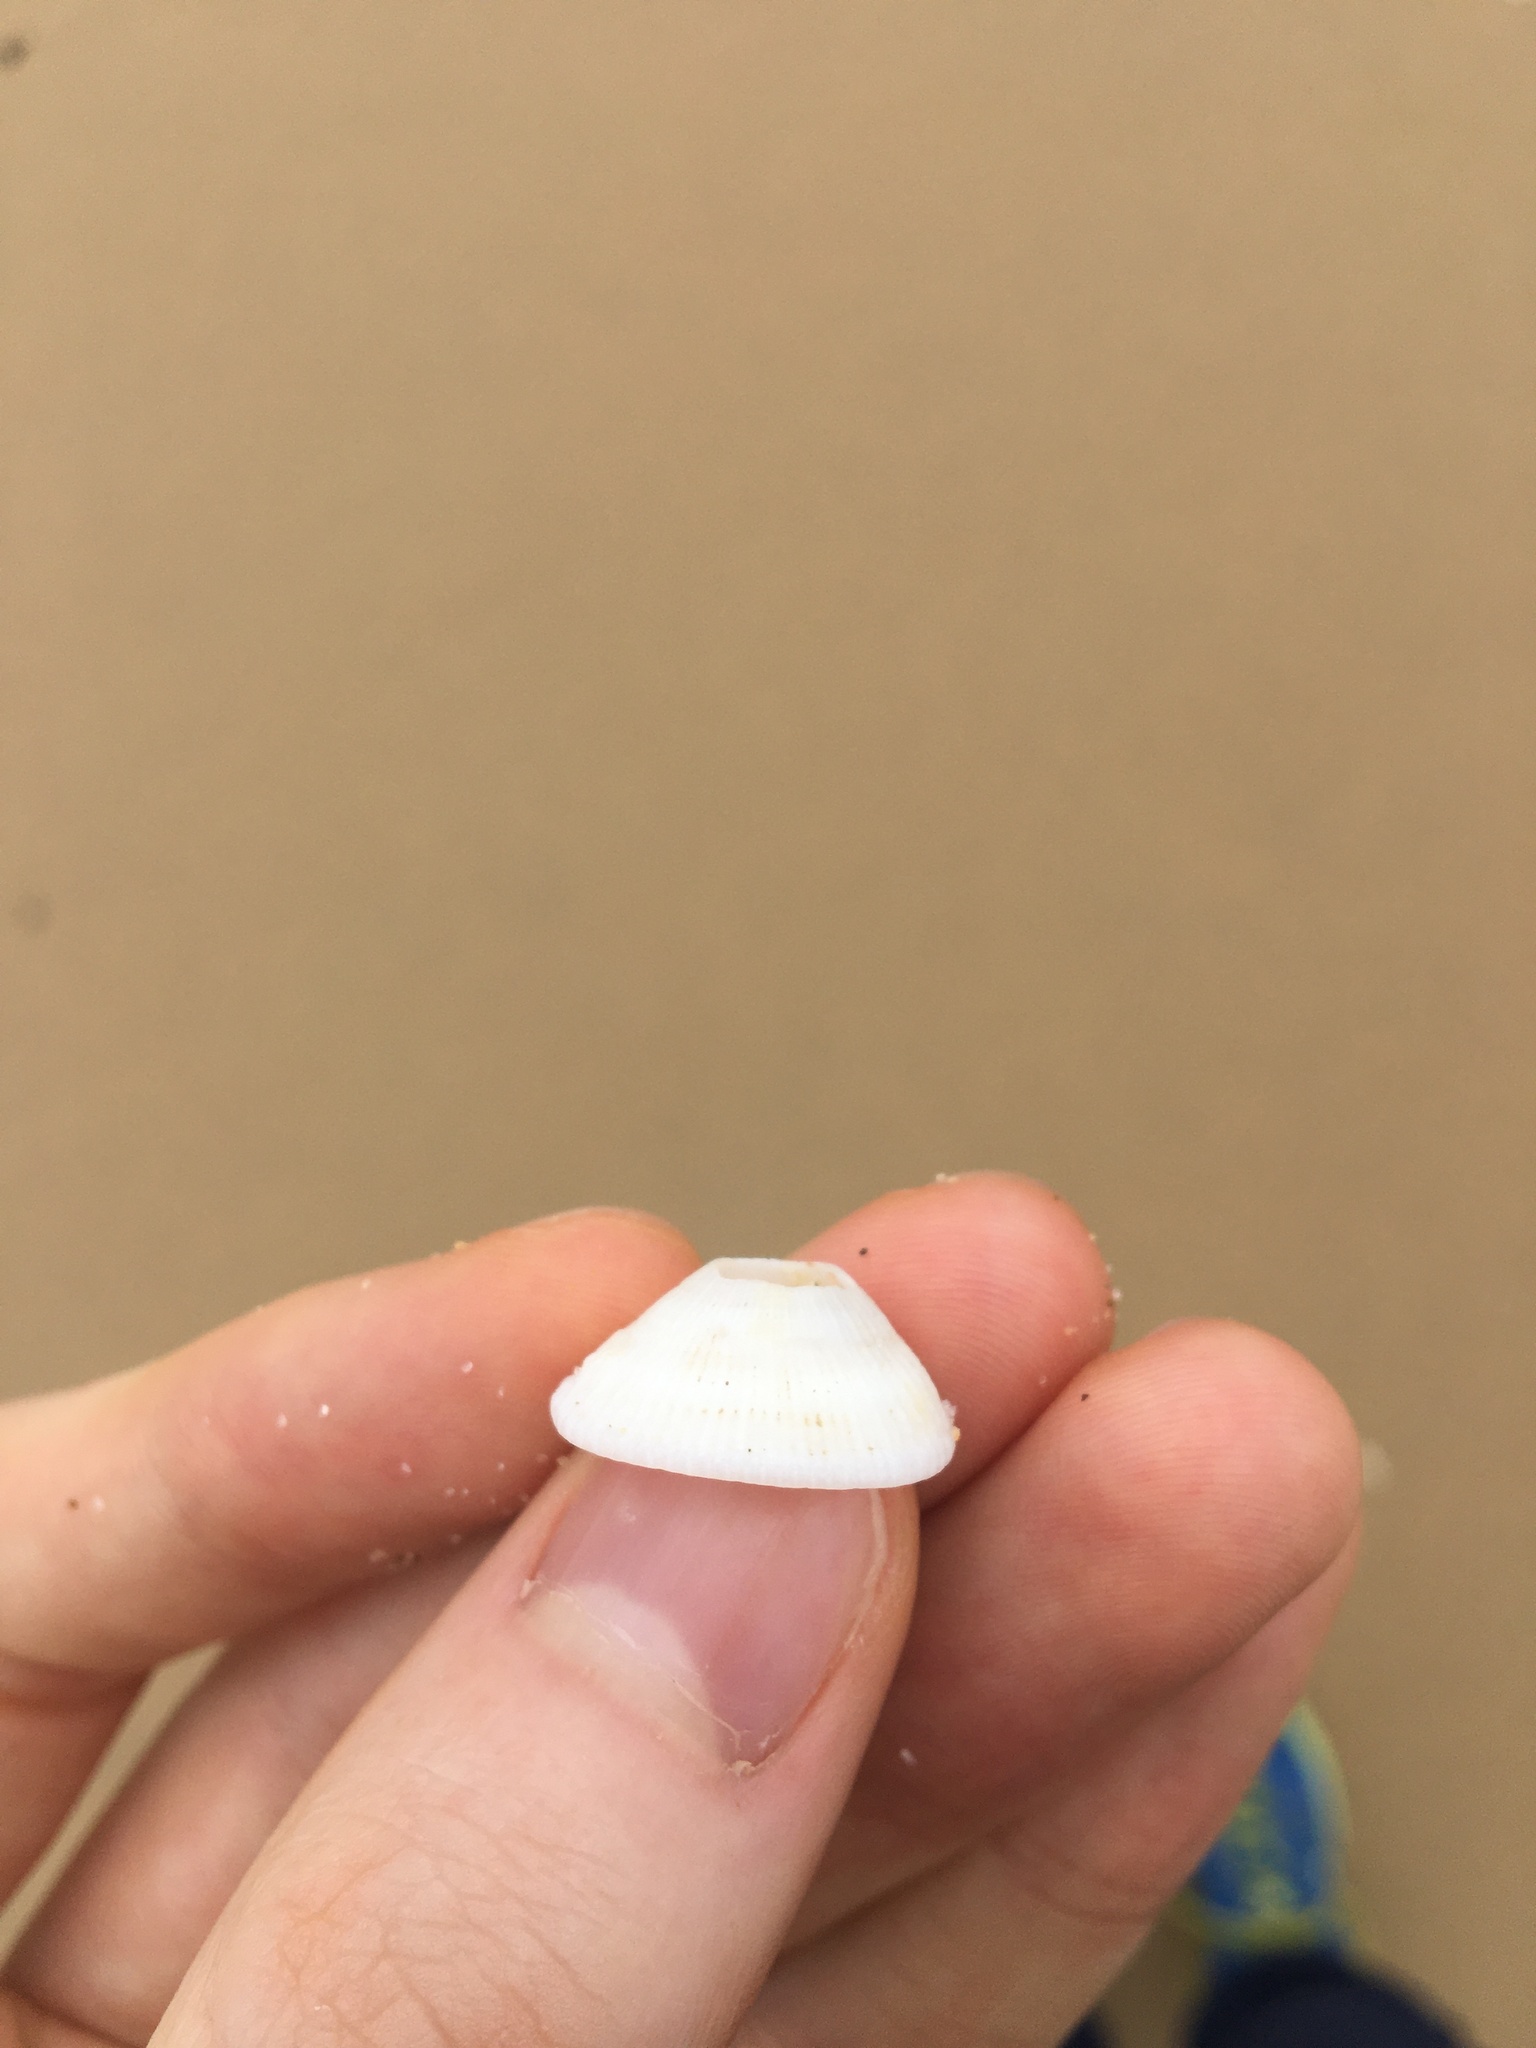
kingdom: Animalia
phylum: Mollusca
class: Gastropoda
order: Lepetellida
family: Fissurellidae
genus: Montfortula
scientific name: Montfortula rugosa
